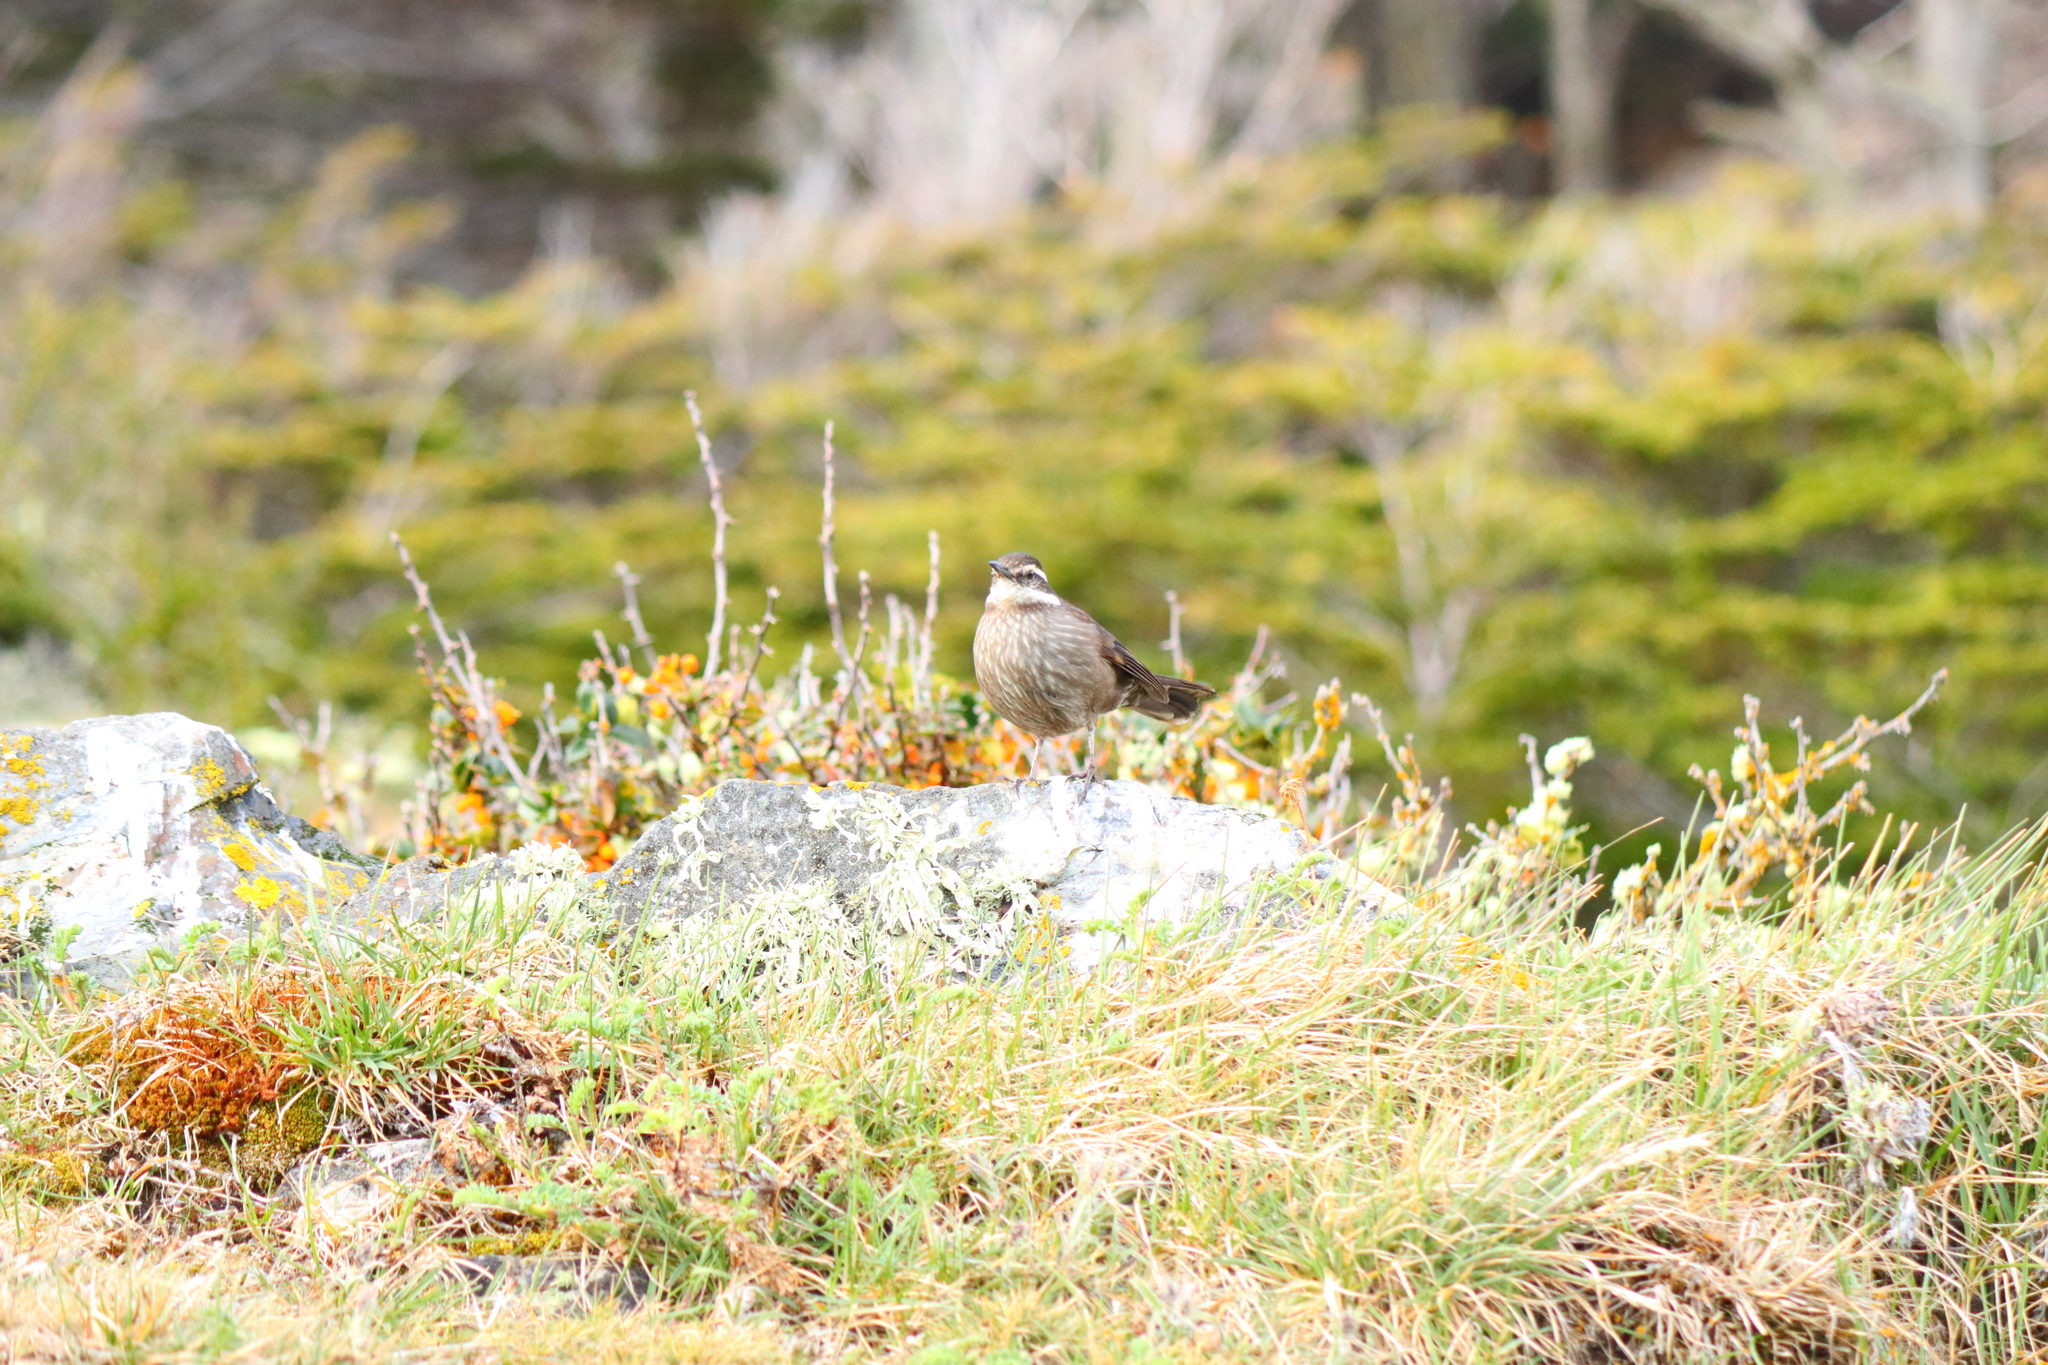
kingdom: Animalia
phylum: Chordata
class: Aves
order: Passeriformes
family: Furnariidae
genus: Cinclodes
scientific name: Cinclodes patagonicus
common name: Dark-bellied cinclodes
